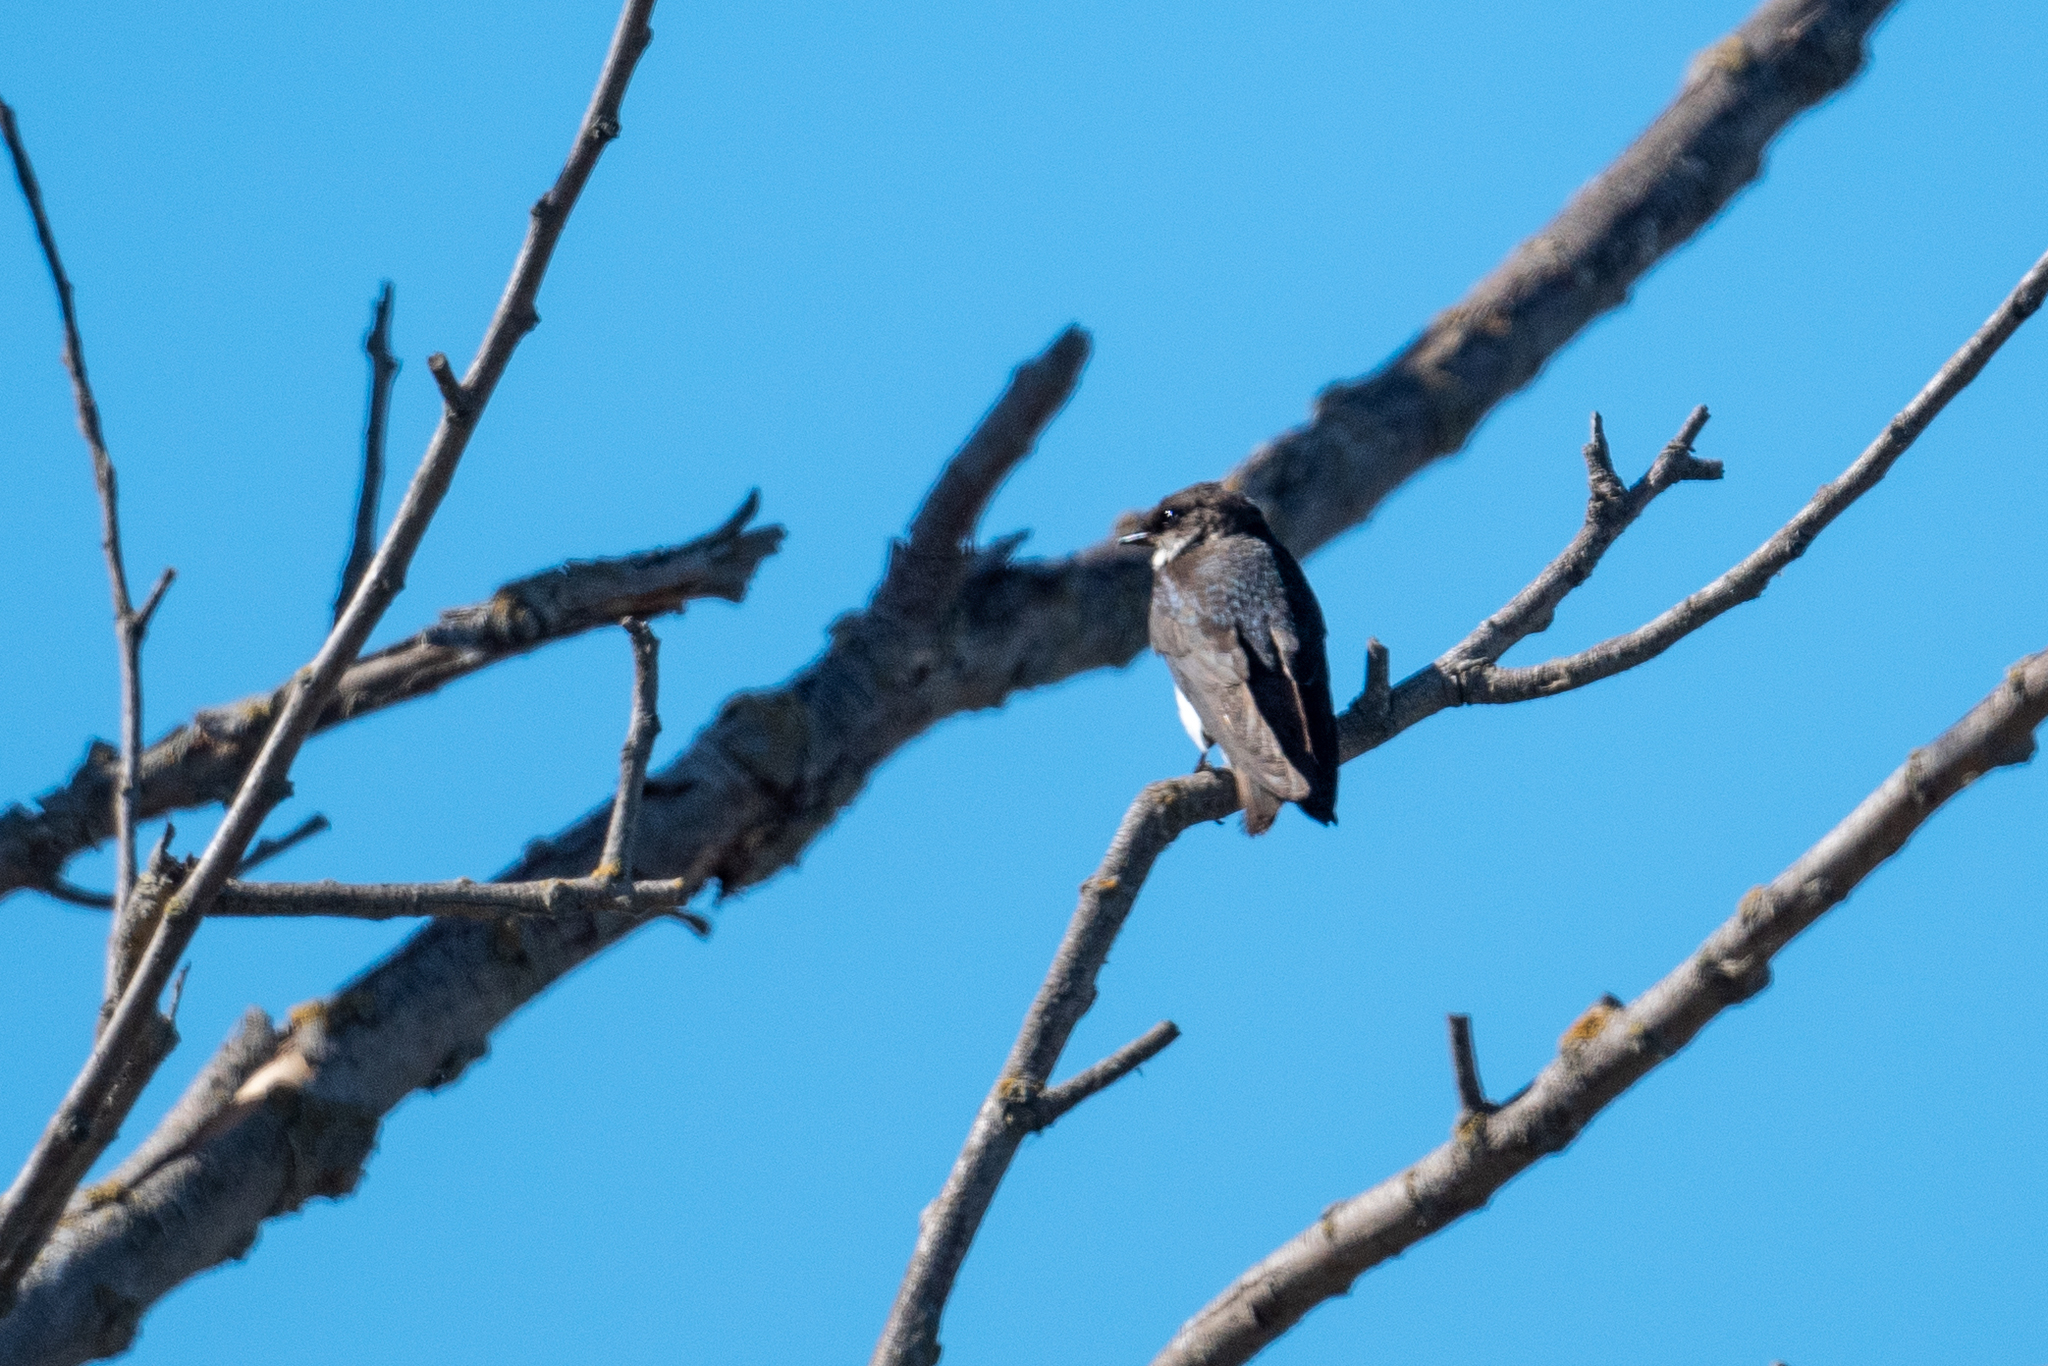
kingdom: Animalia
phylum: Chordata
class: Aves
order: Passeriformes
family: Hirundinidae
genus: Tachycineta
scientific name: Tachycineta bicolor
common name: Tree swallow
